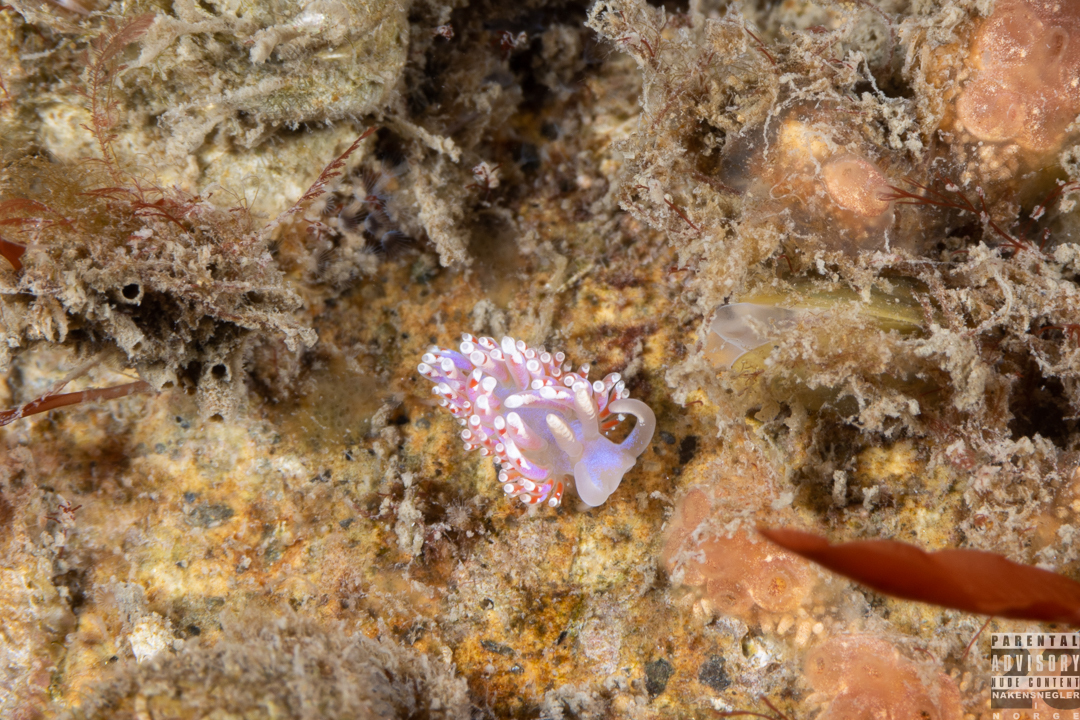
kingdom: Animalia
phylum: Mollusca
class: Gastropoda
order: Nudibranchia
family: Facelinidae
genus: Facelina
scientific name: Facelina auriculata
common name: Slender facelina
